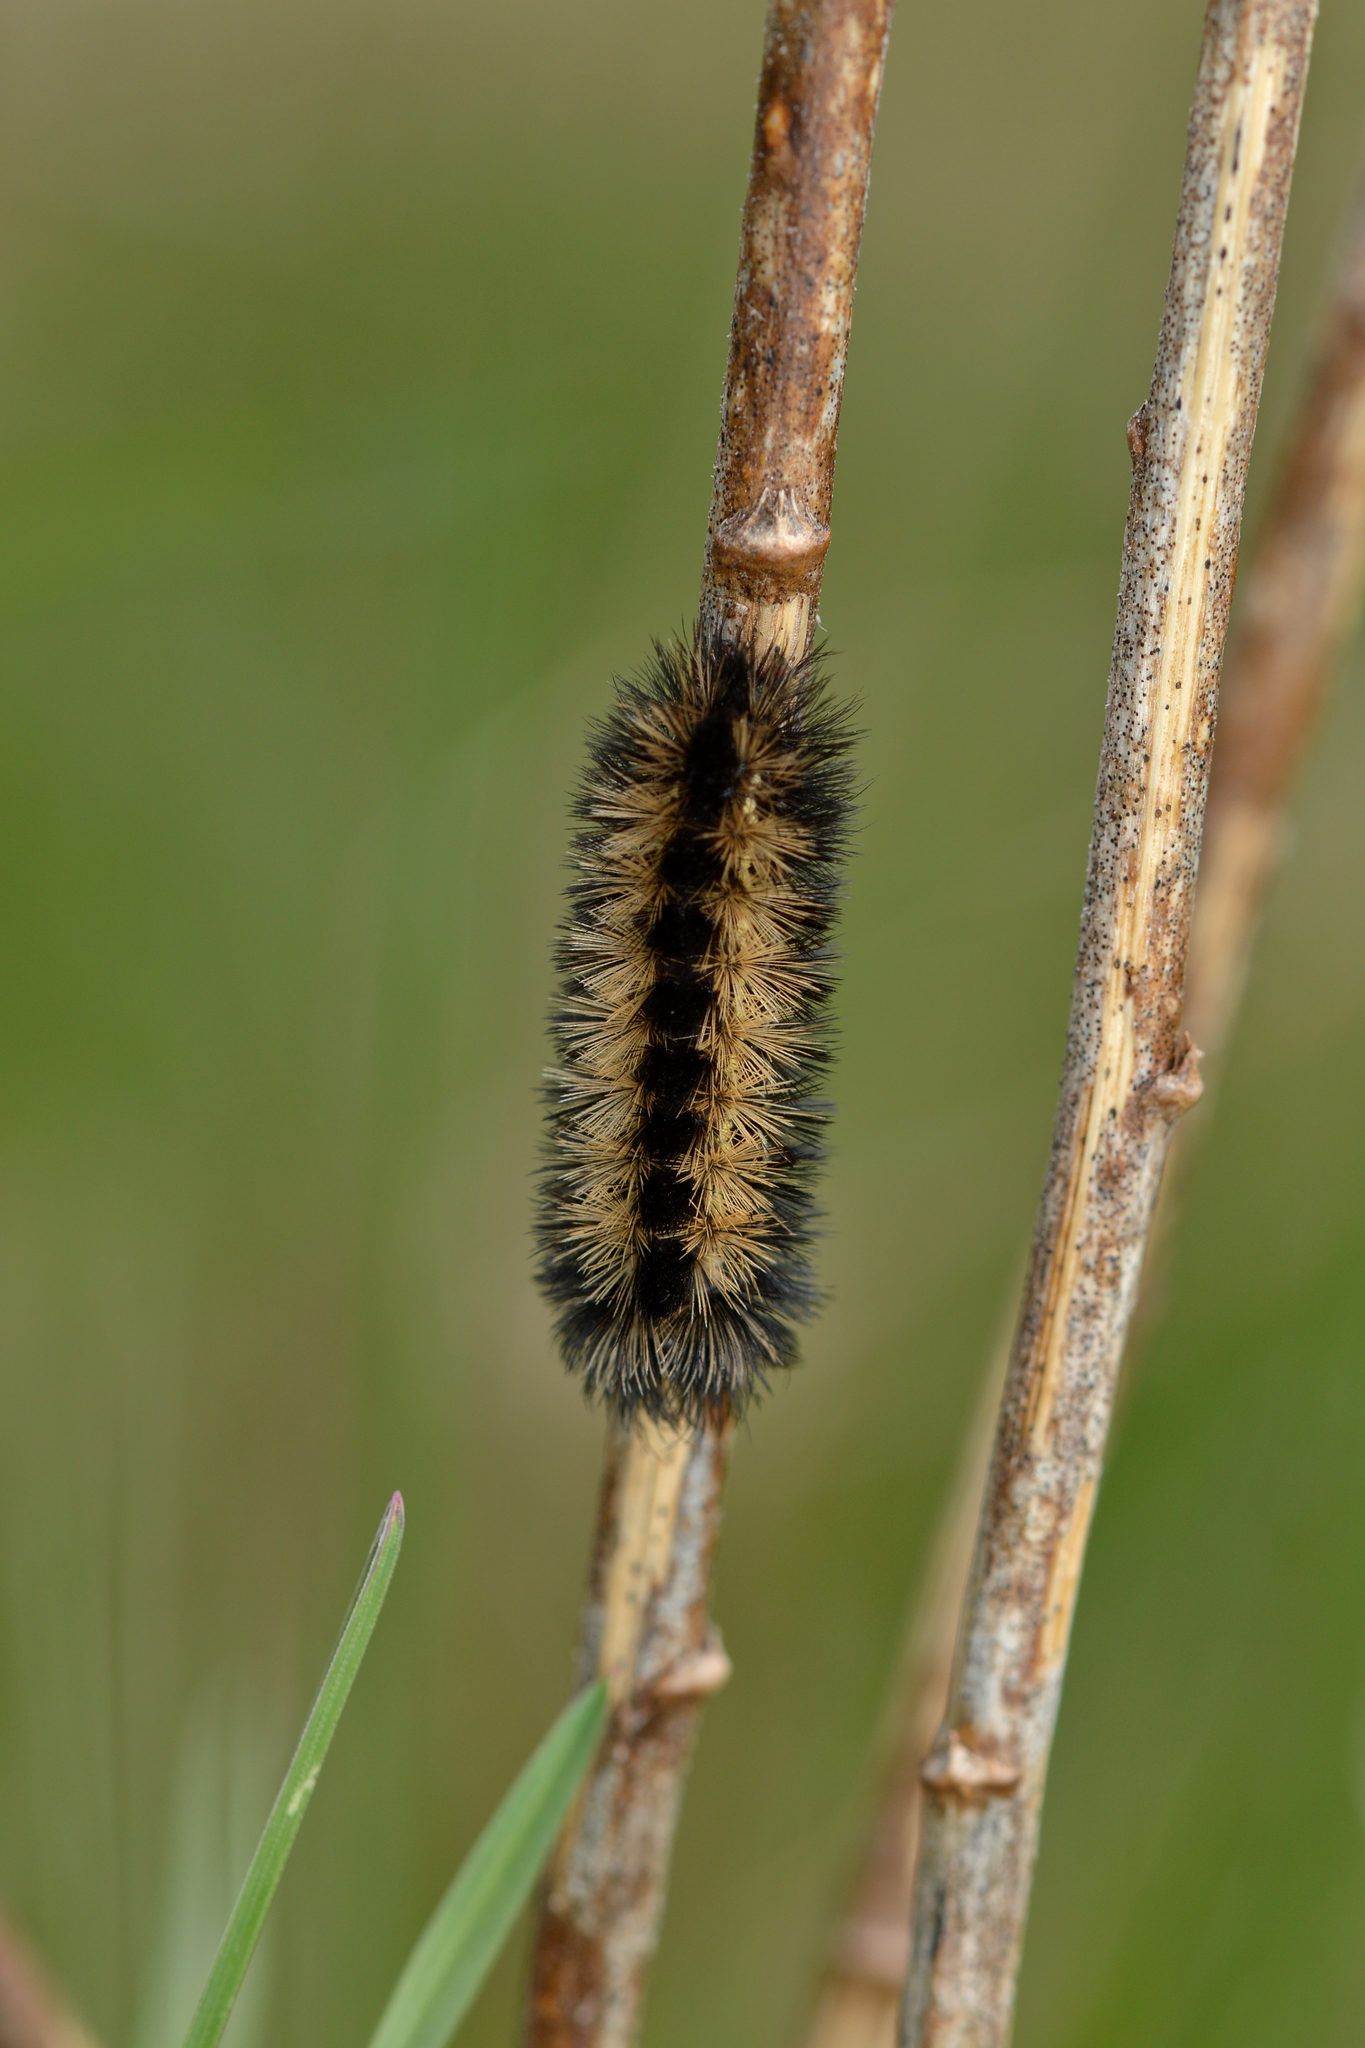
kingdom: Animalia
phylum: Arthropoda
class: Insecta
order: Lepidoptera
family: Erebidae
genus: Ctenucha
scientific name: Ctenucha virginica
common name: Virginia ctenucha moth
